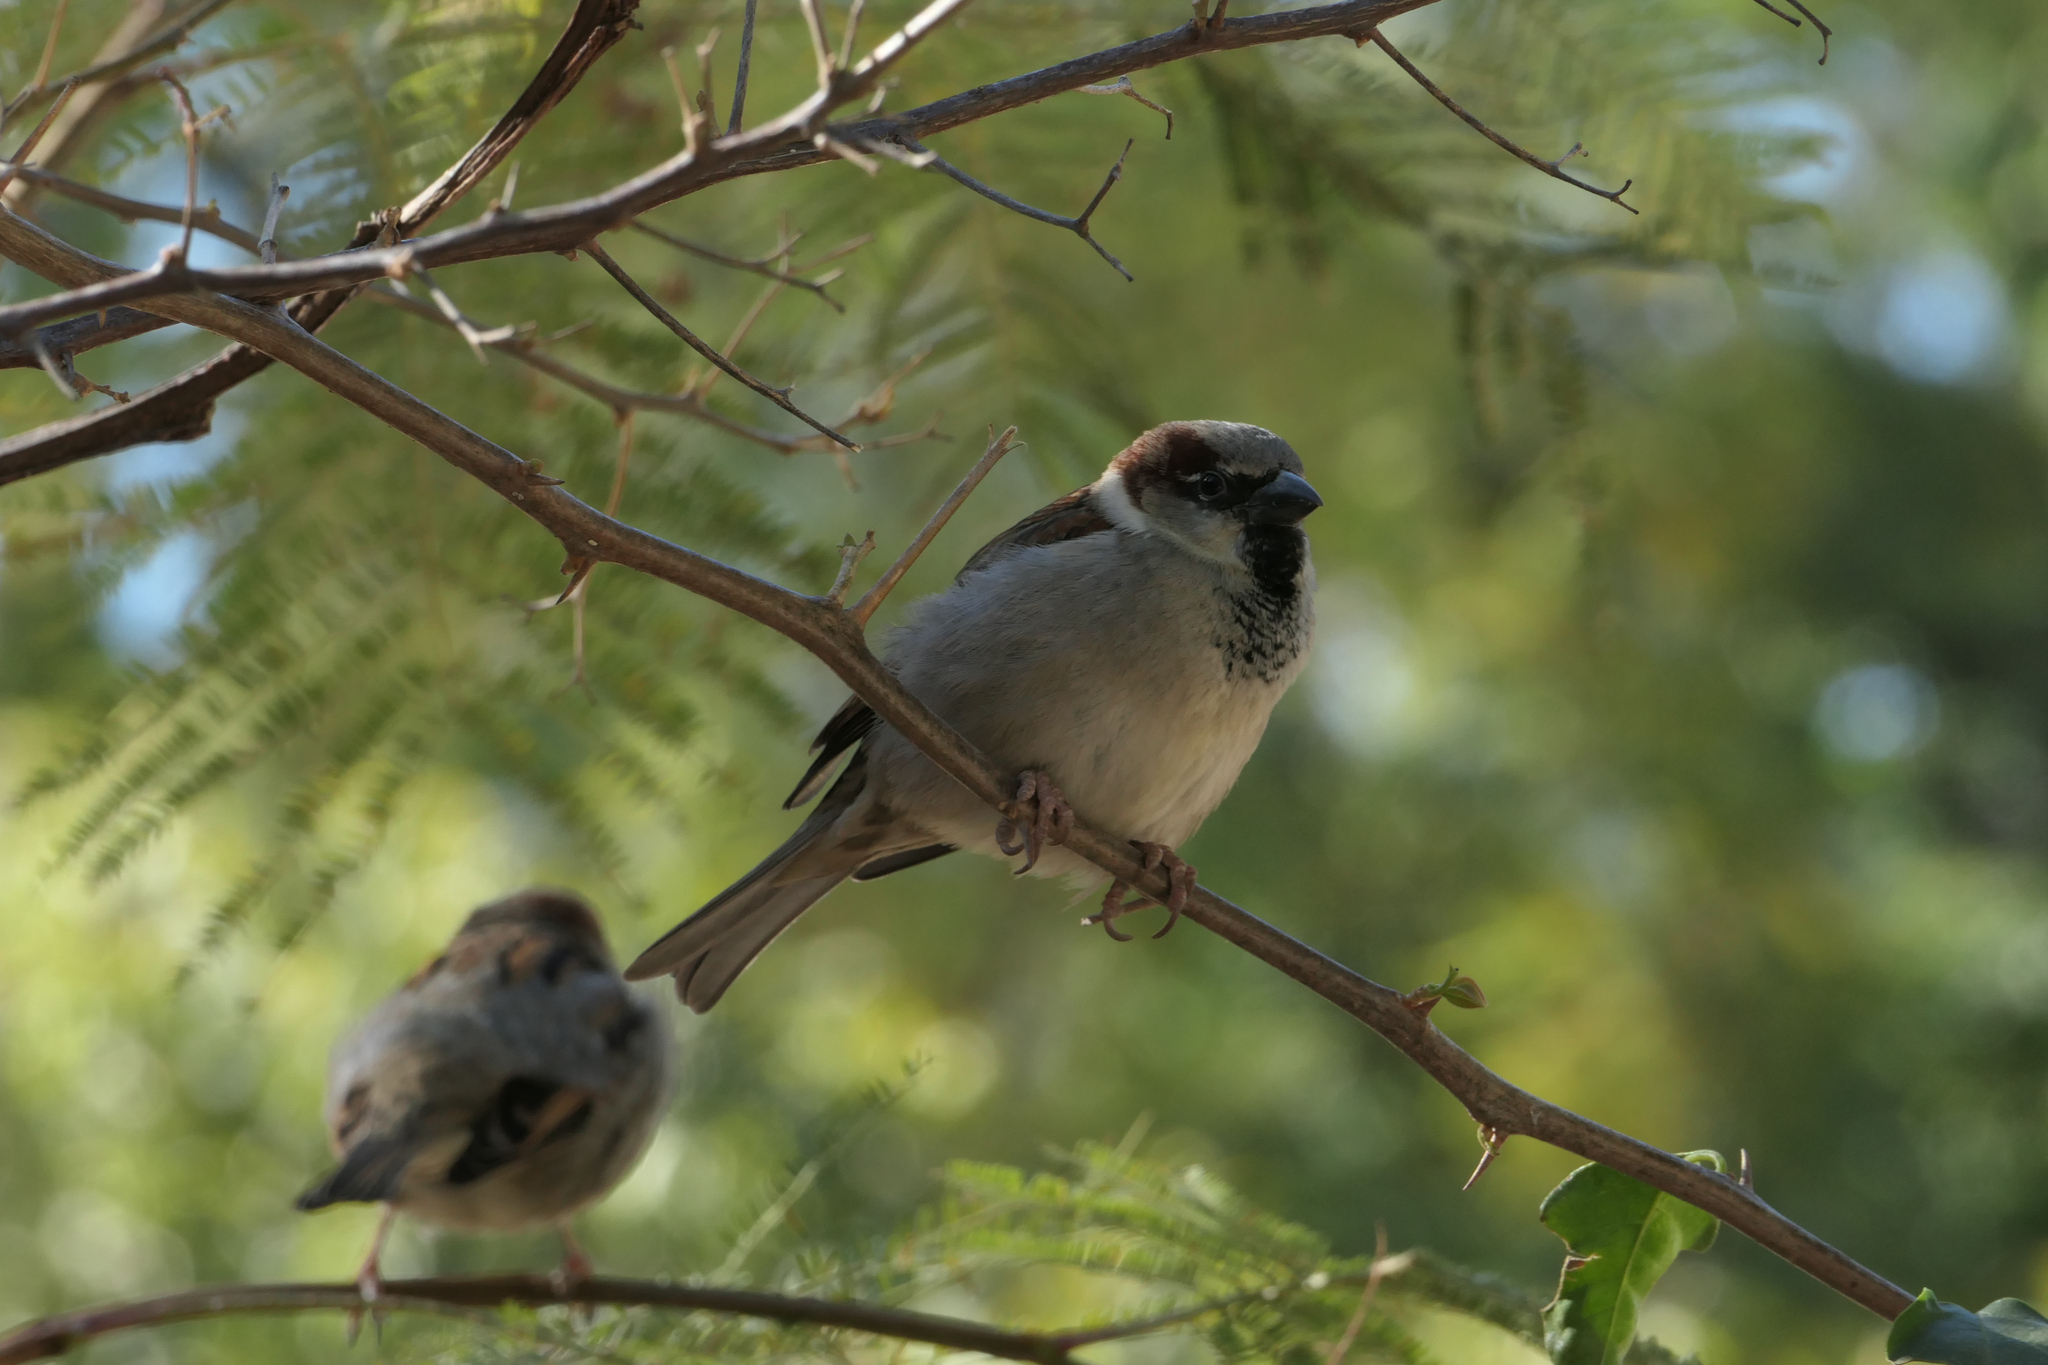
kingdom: Animalia
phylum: Chordata
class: Aves
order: Passeriformes
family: Passeridae
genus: Passer
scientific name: Passer domesticus
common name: House sparrow
